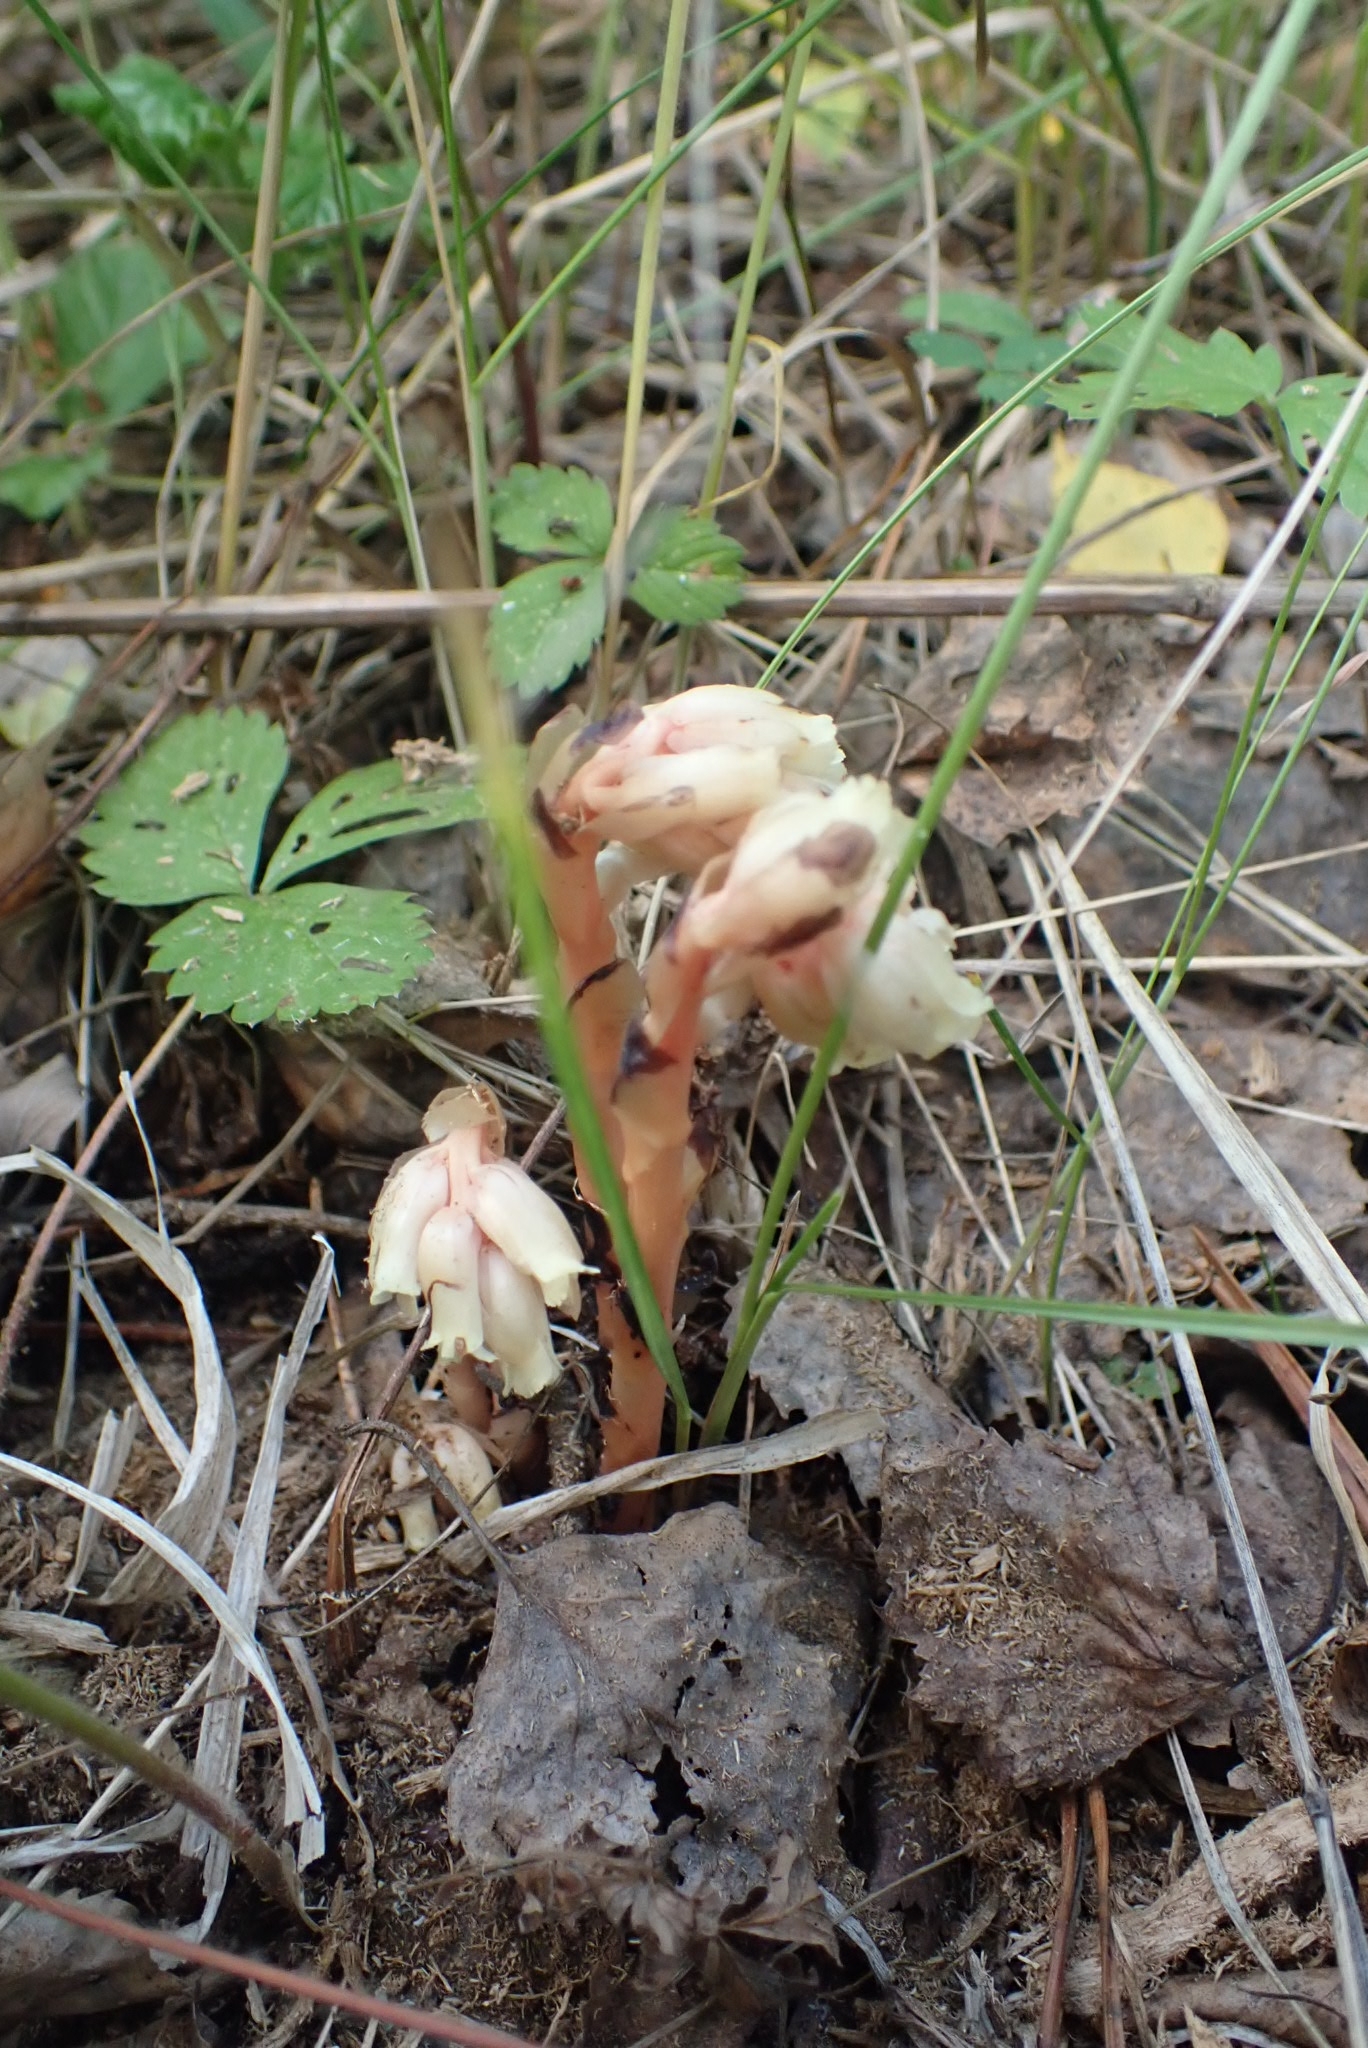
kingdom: Plantae
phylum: Tracheophyta
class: Magnoliopsida
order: Ericales
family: Ericaceae
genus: Hypopitys
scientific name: Hypopitys monotropa
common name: Yellow bird's-nest
